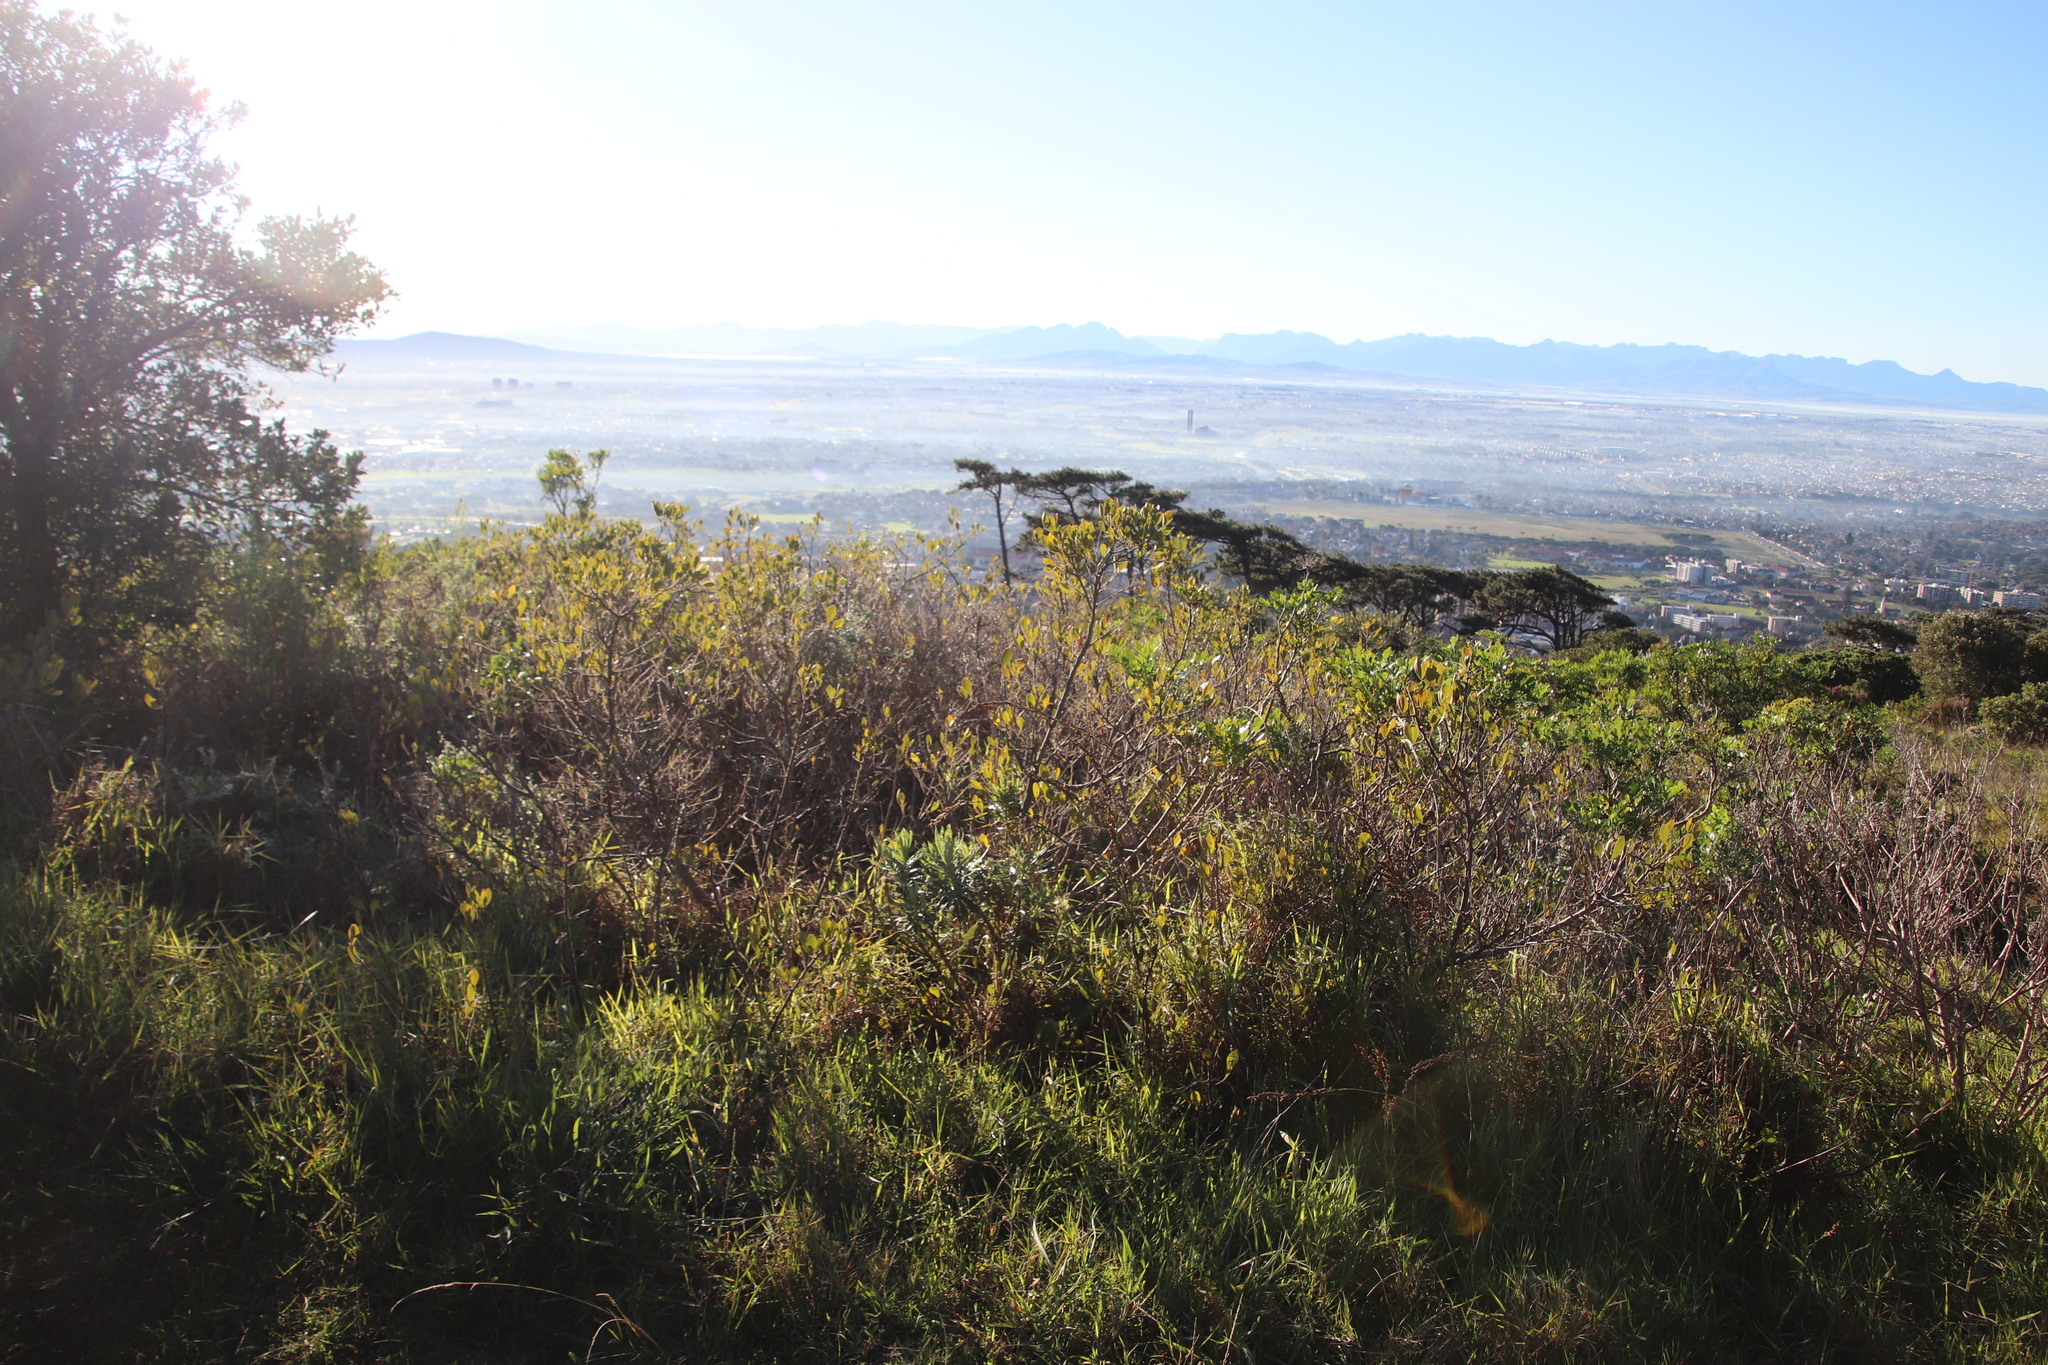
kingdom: Plantae
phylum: Tracheophyta
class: Magnoliopsida
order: Sapindales
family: Anacardiaceae
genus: Searsia
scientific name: Searsia laevigata
